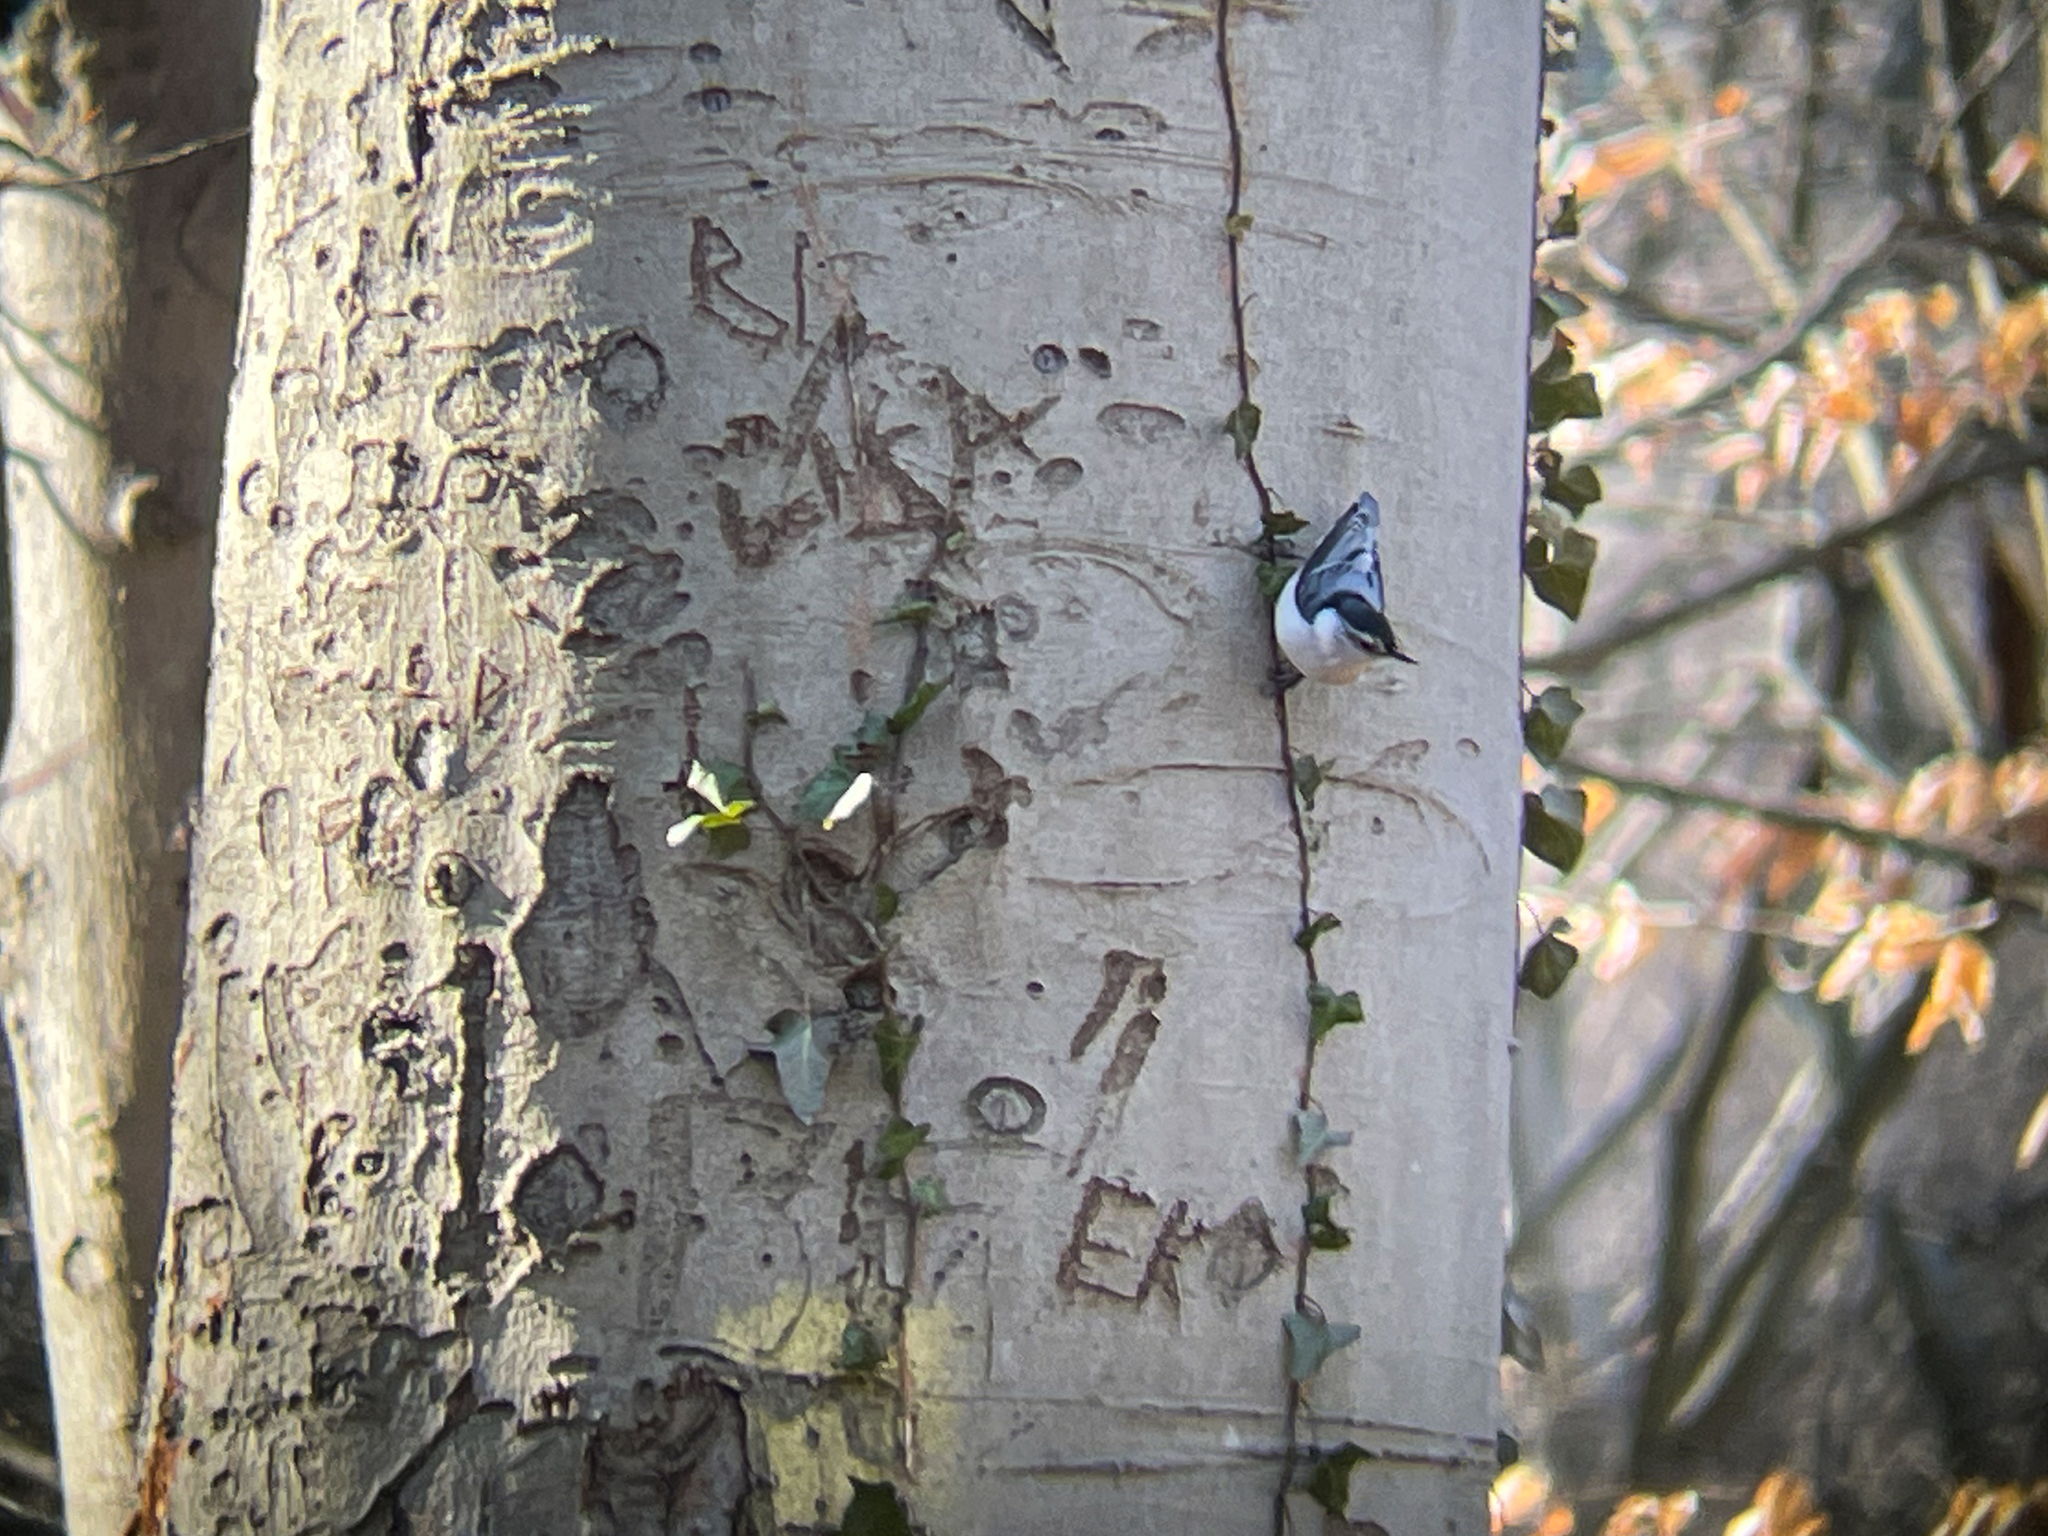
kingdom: Animalia
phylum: Chordata
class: Aves
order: Passeriformes
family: Sittidae
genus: Sitta
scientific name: Sitta carolinensis
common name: White-breasted nuthatch
